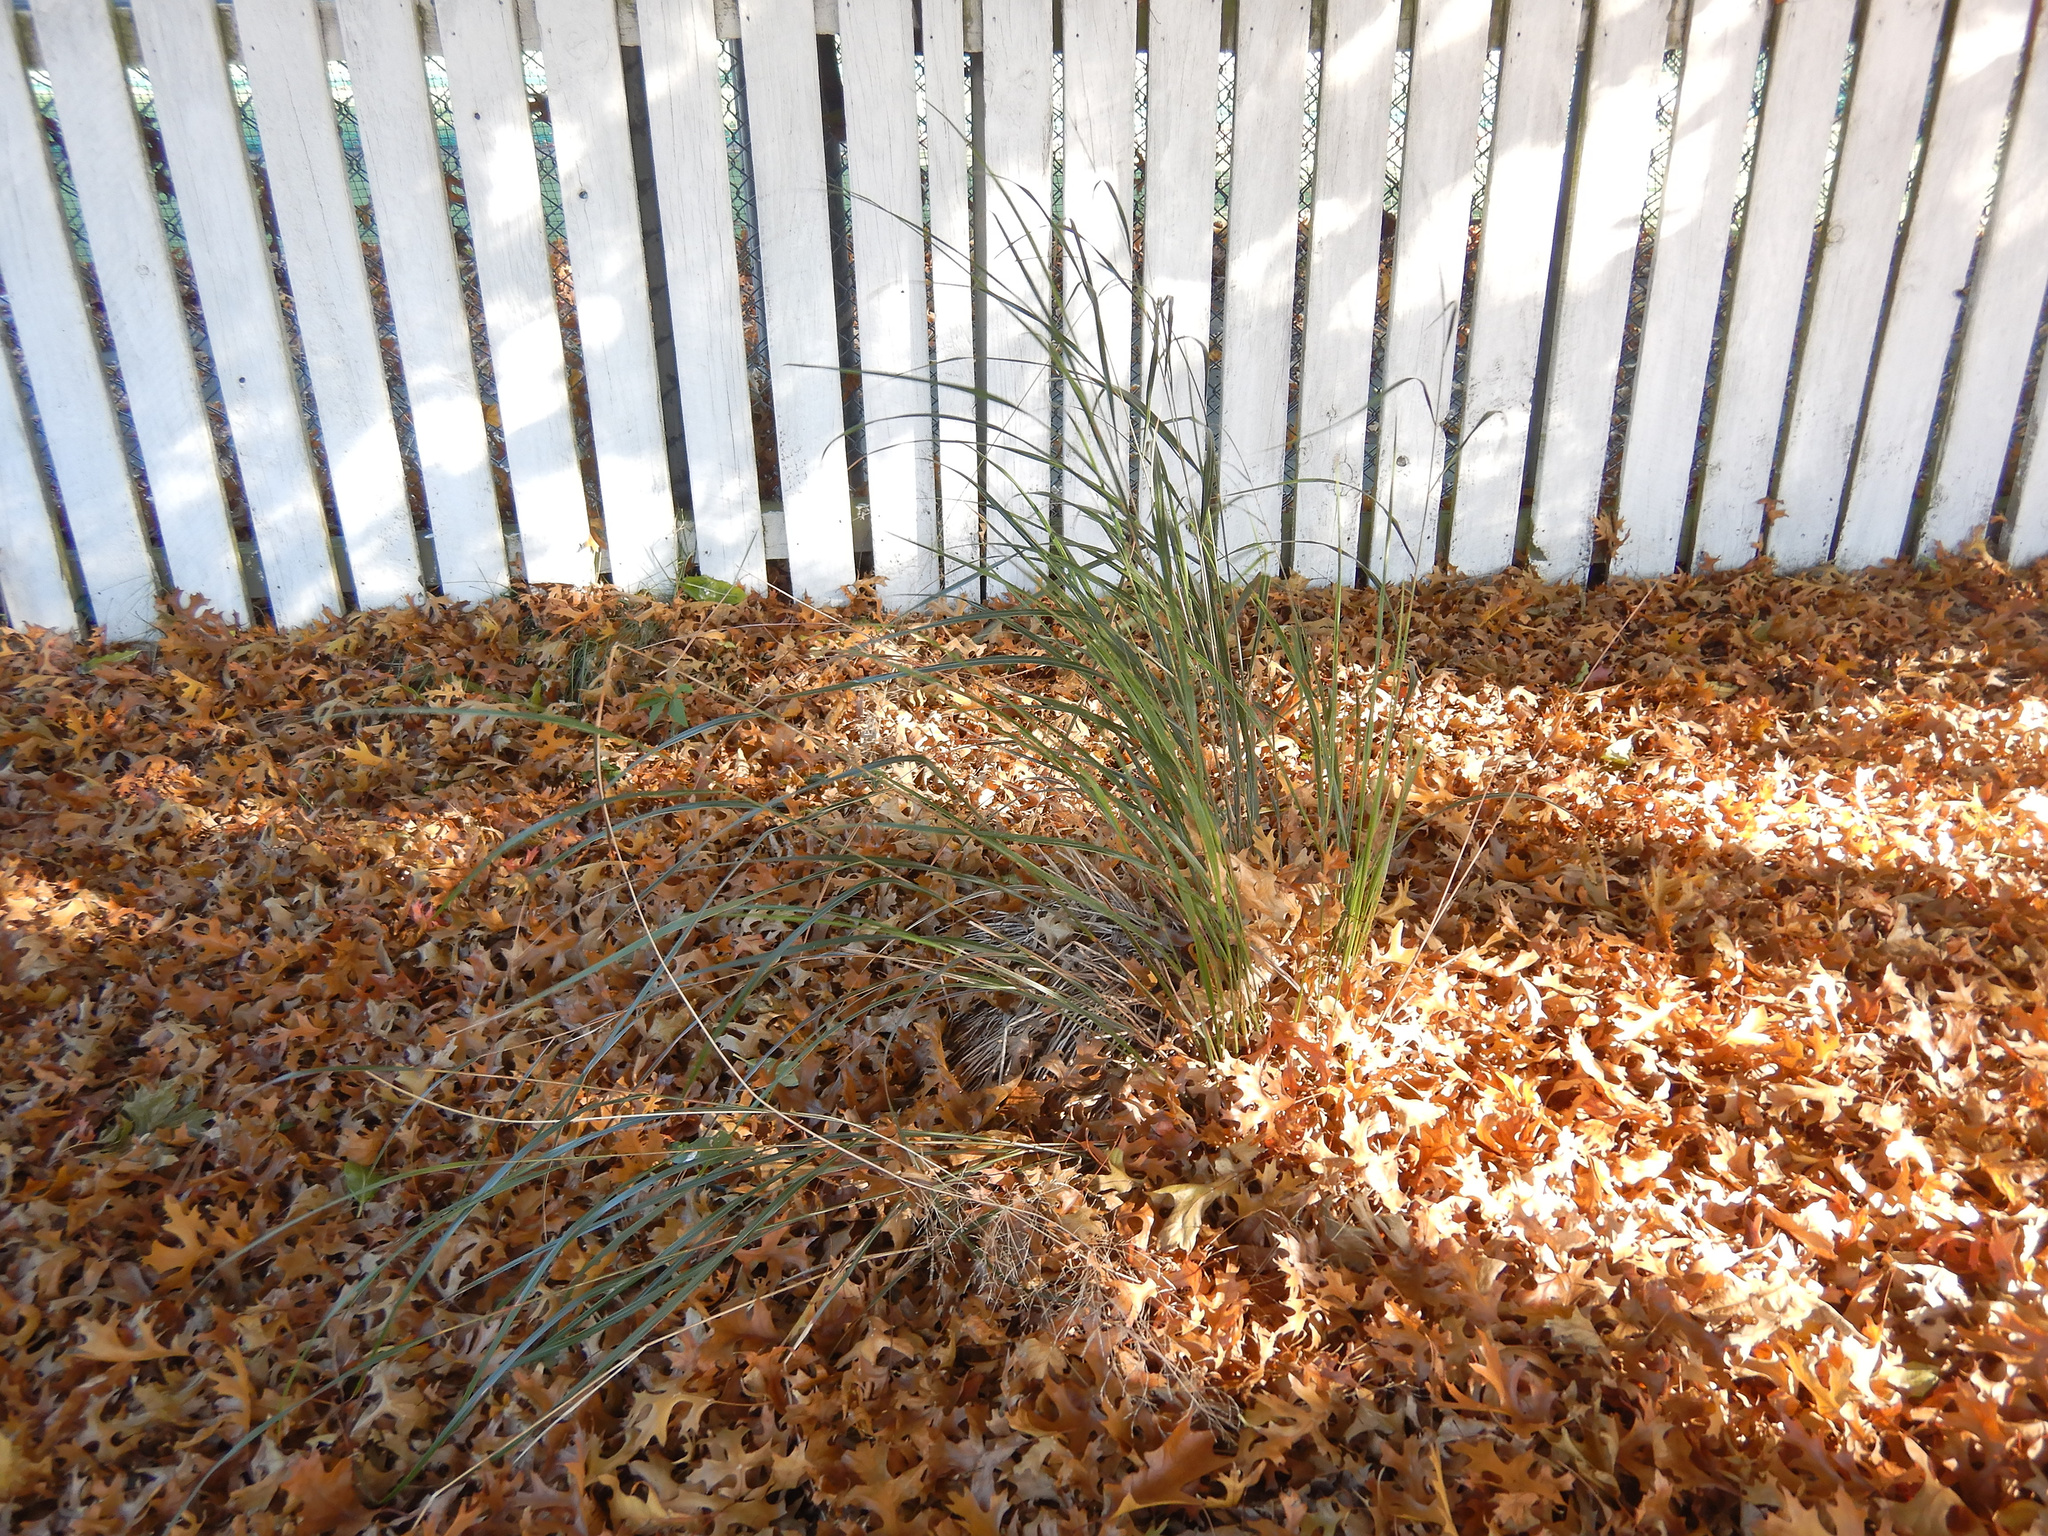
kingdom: Plantae
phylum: Tracheophyta
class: Liliopsida
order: Poales
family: Poaceae
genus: Anemanthele
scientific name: Anemanthele lessoniana
